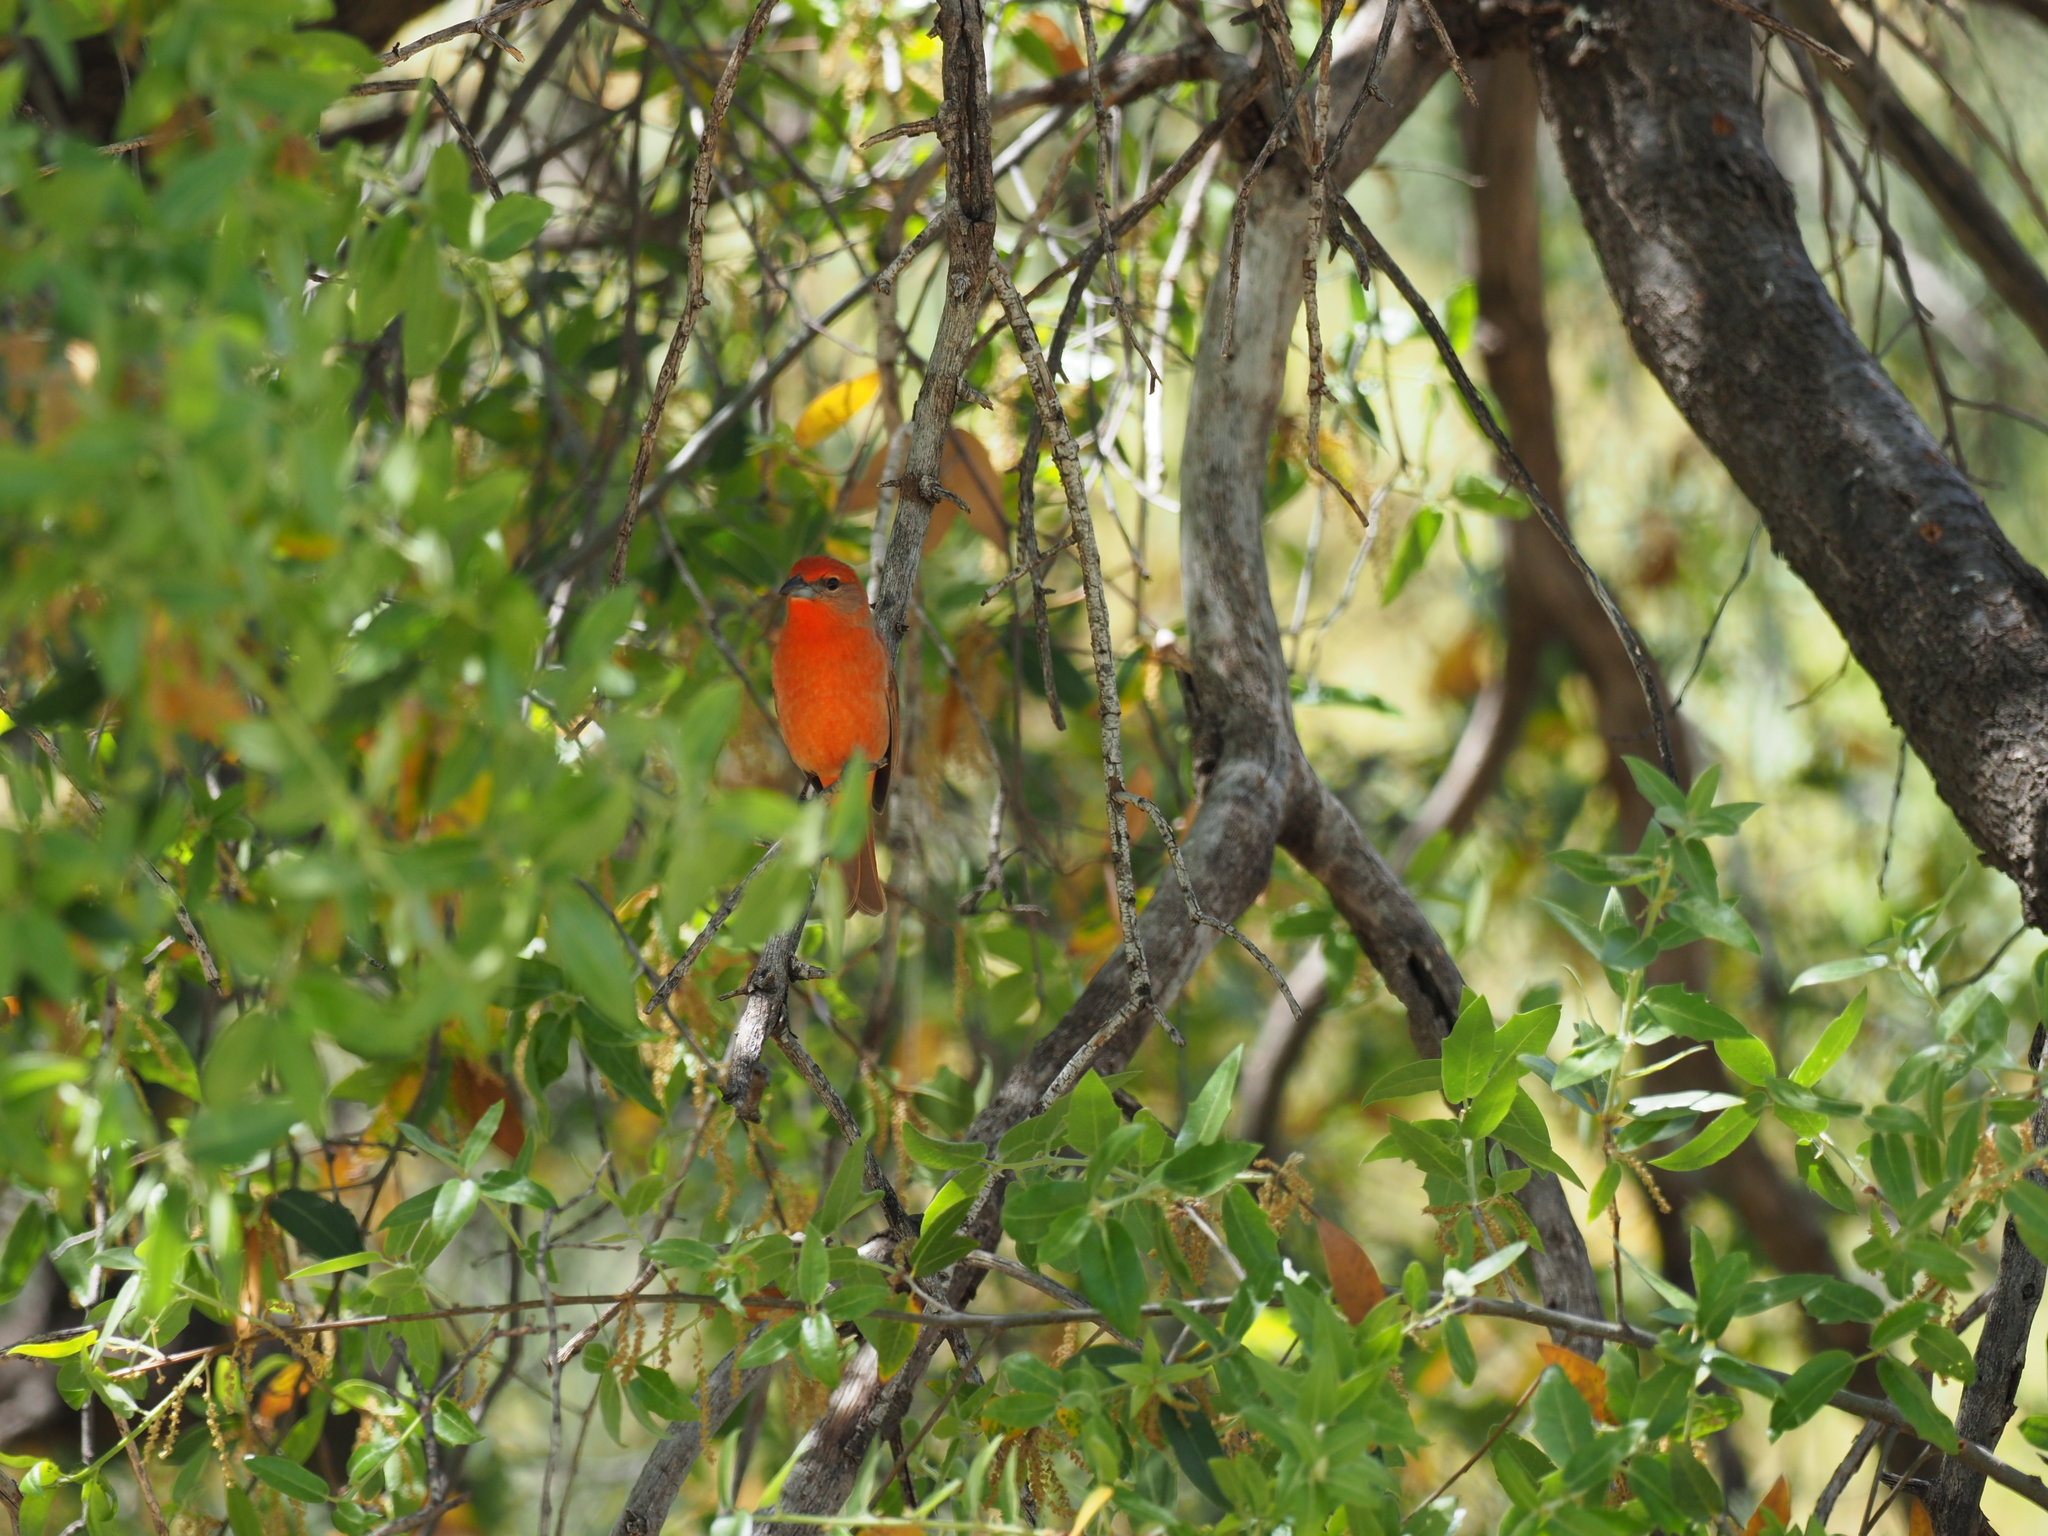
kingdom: Animalia
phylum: Chordata
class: Aves
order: Passeriformes
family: Cardinalidae
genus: Piranga
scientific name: Piranga flava
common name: Red tanager
